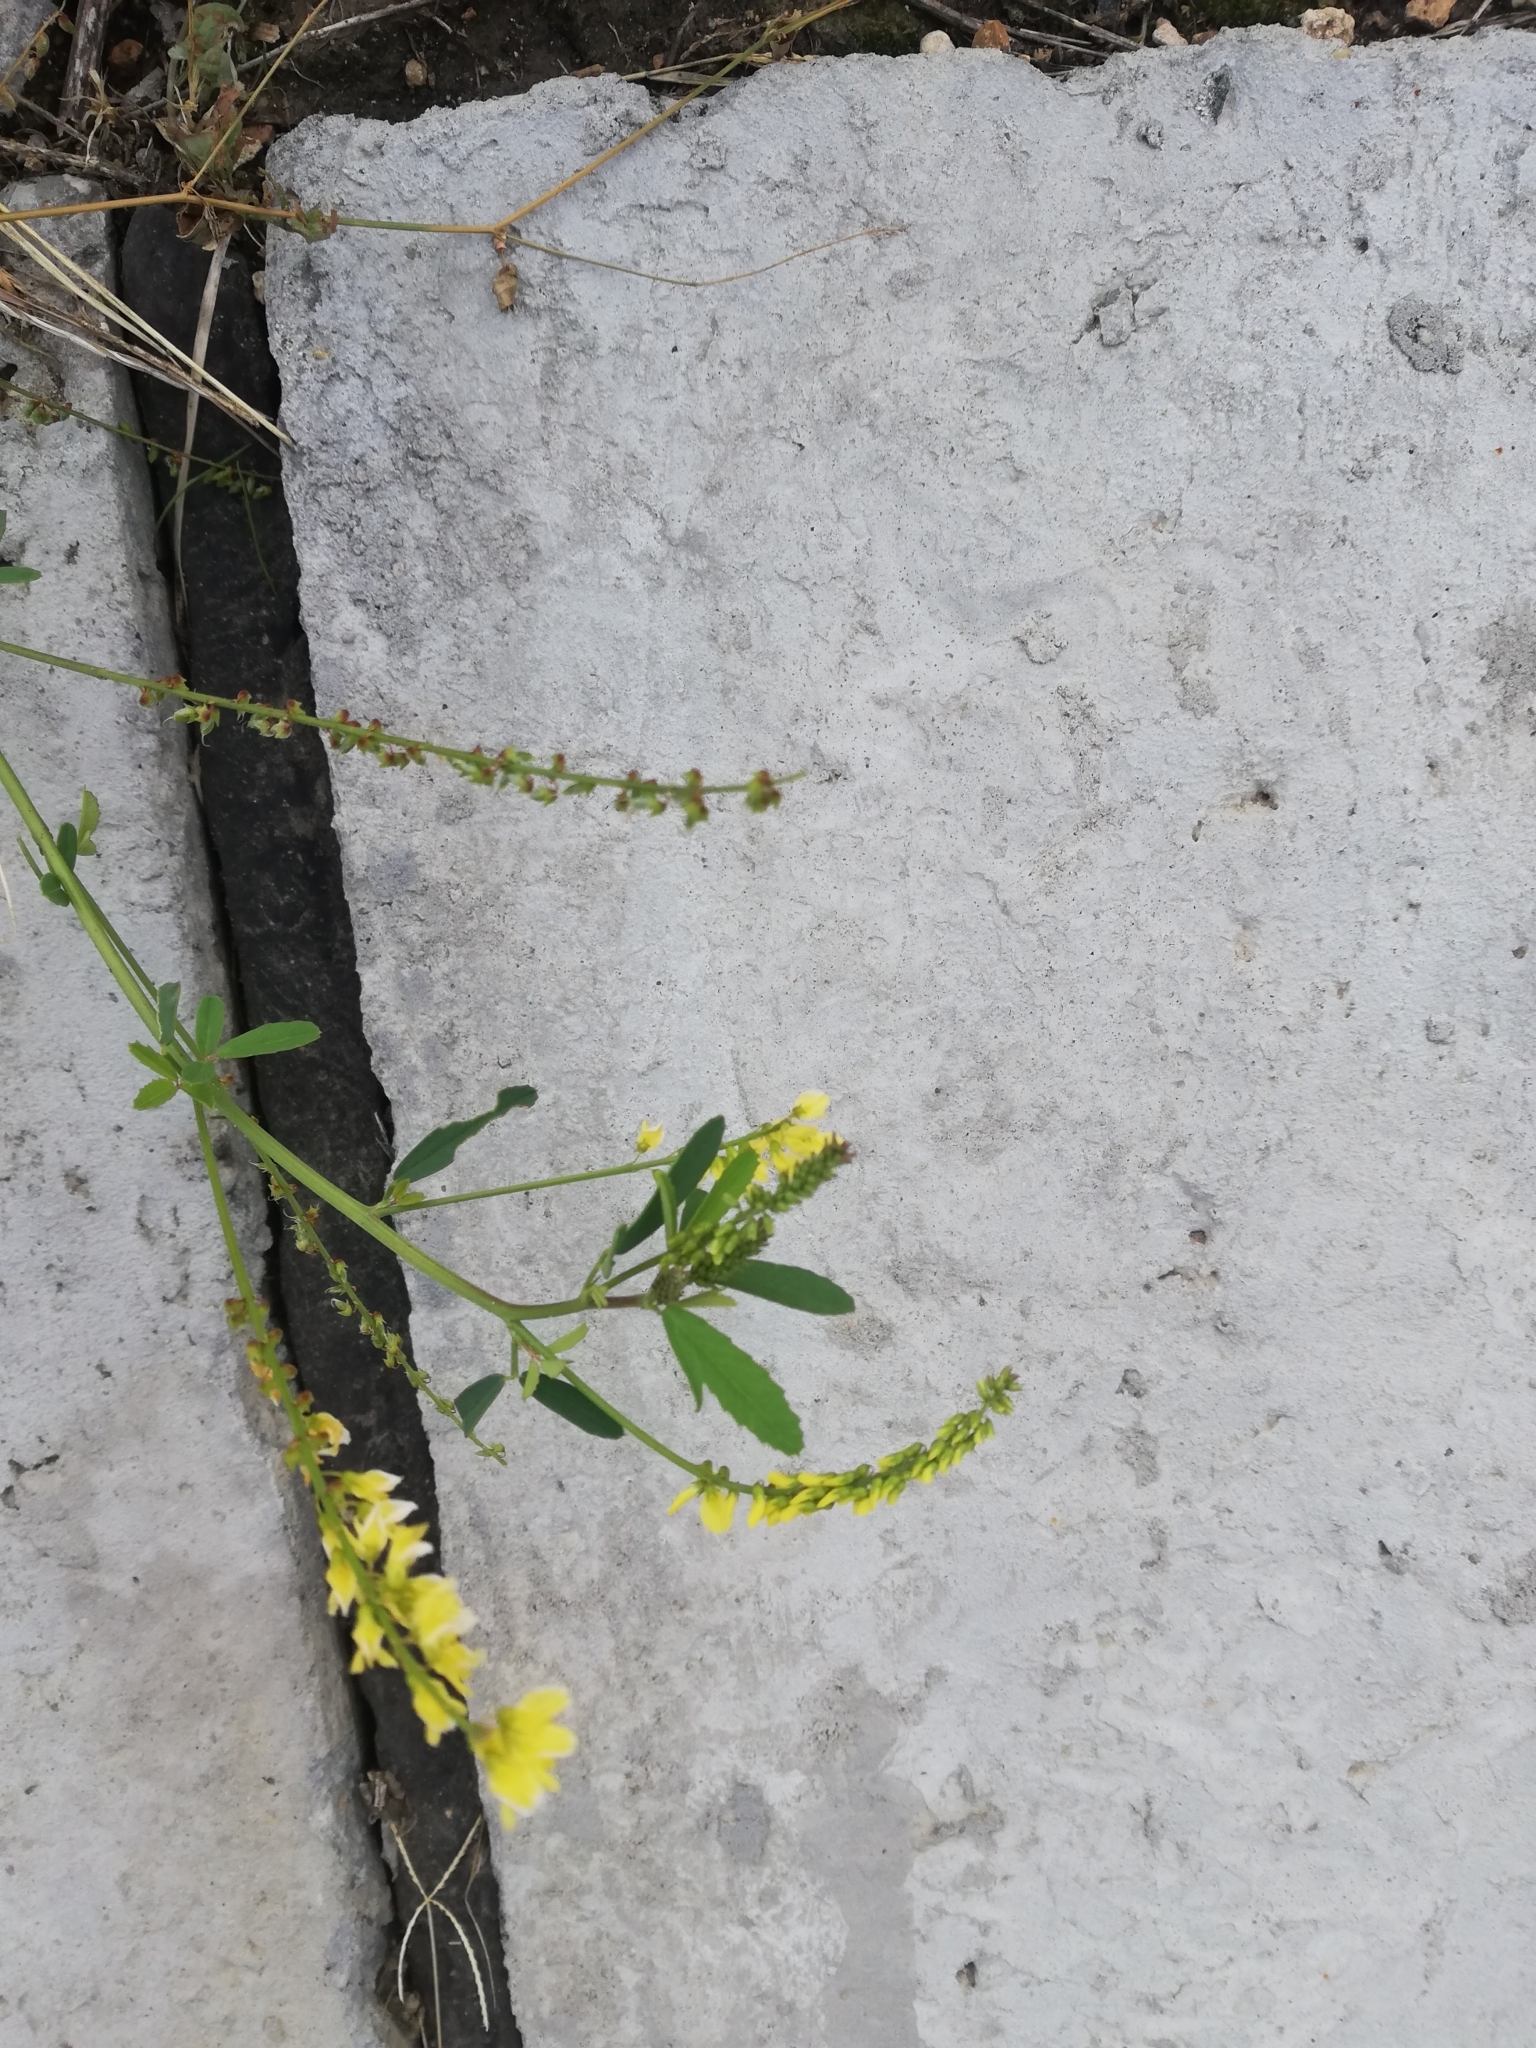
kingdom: Plantae
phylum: Tracheophyta
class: Magnoliopsida
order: Fabales
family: Fabaceae
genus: Melilotus
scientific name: Melilotus officinalis
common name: Sweetclover
